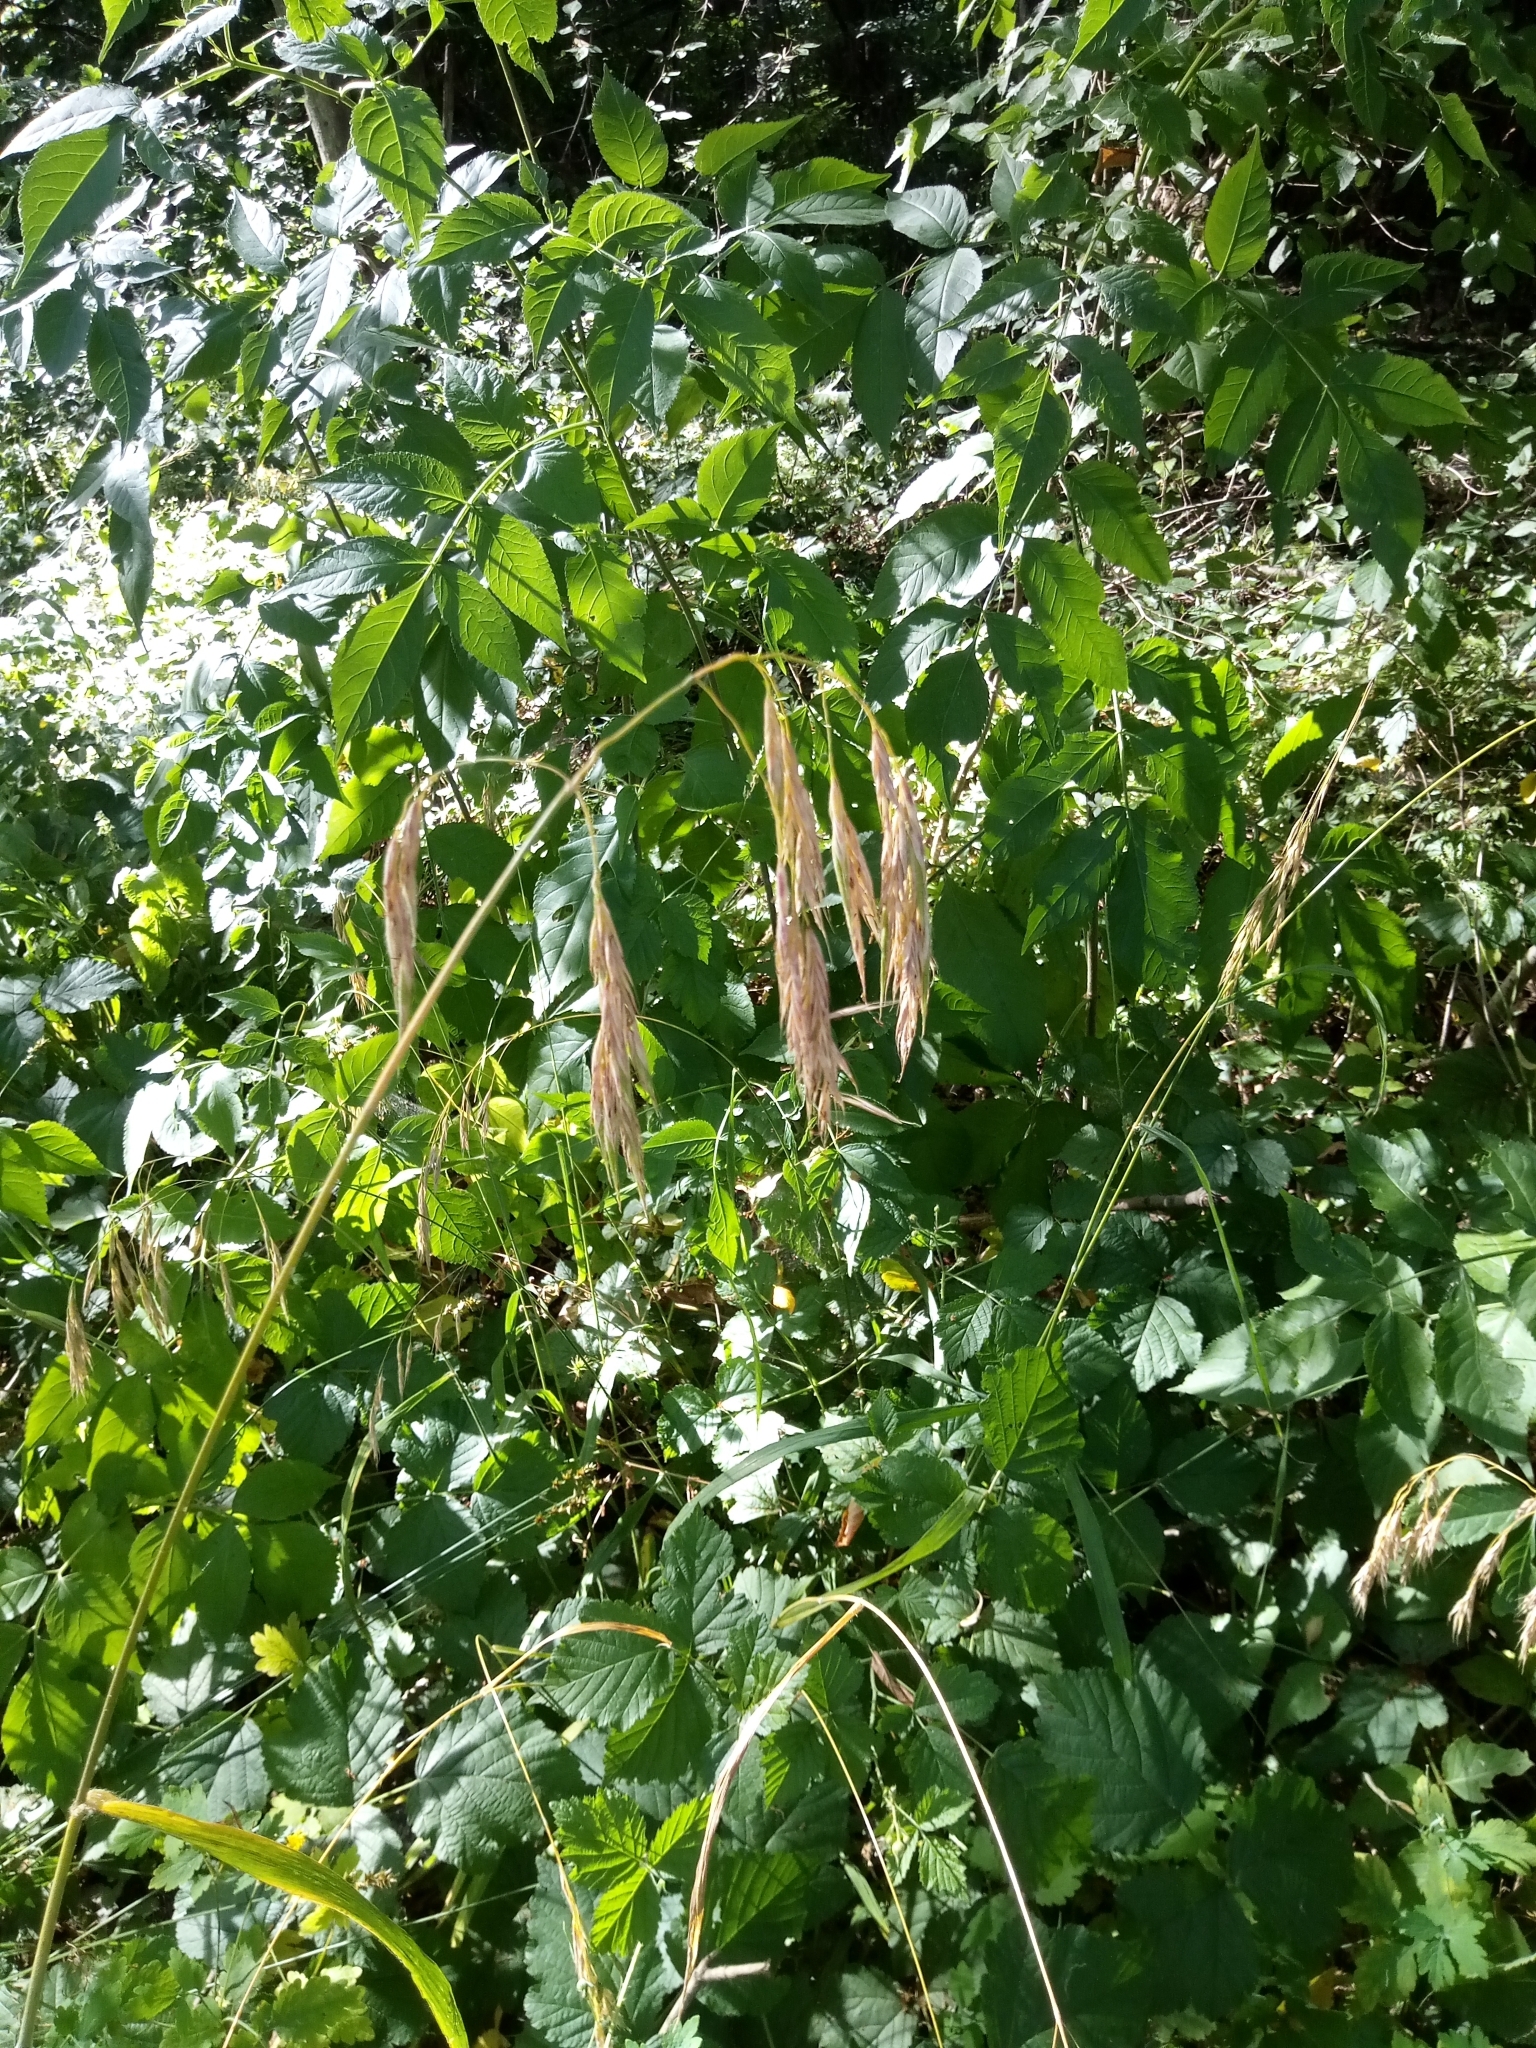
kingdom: Plantae
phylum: Tracheophyta
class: Liliopsida
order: Poales
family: Poaceae
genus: Bromus
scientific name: Bromus benekenii
